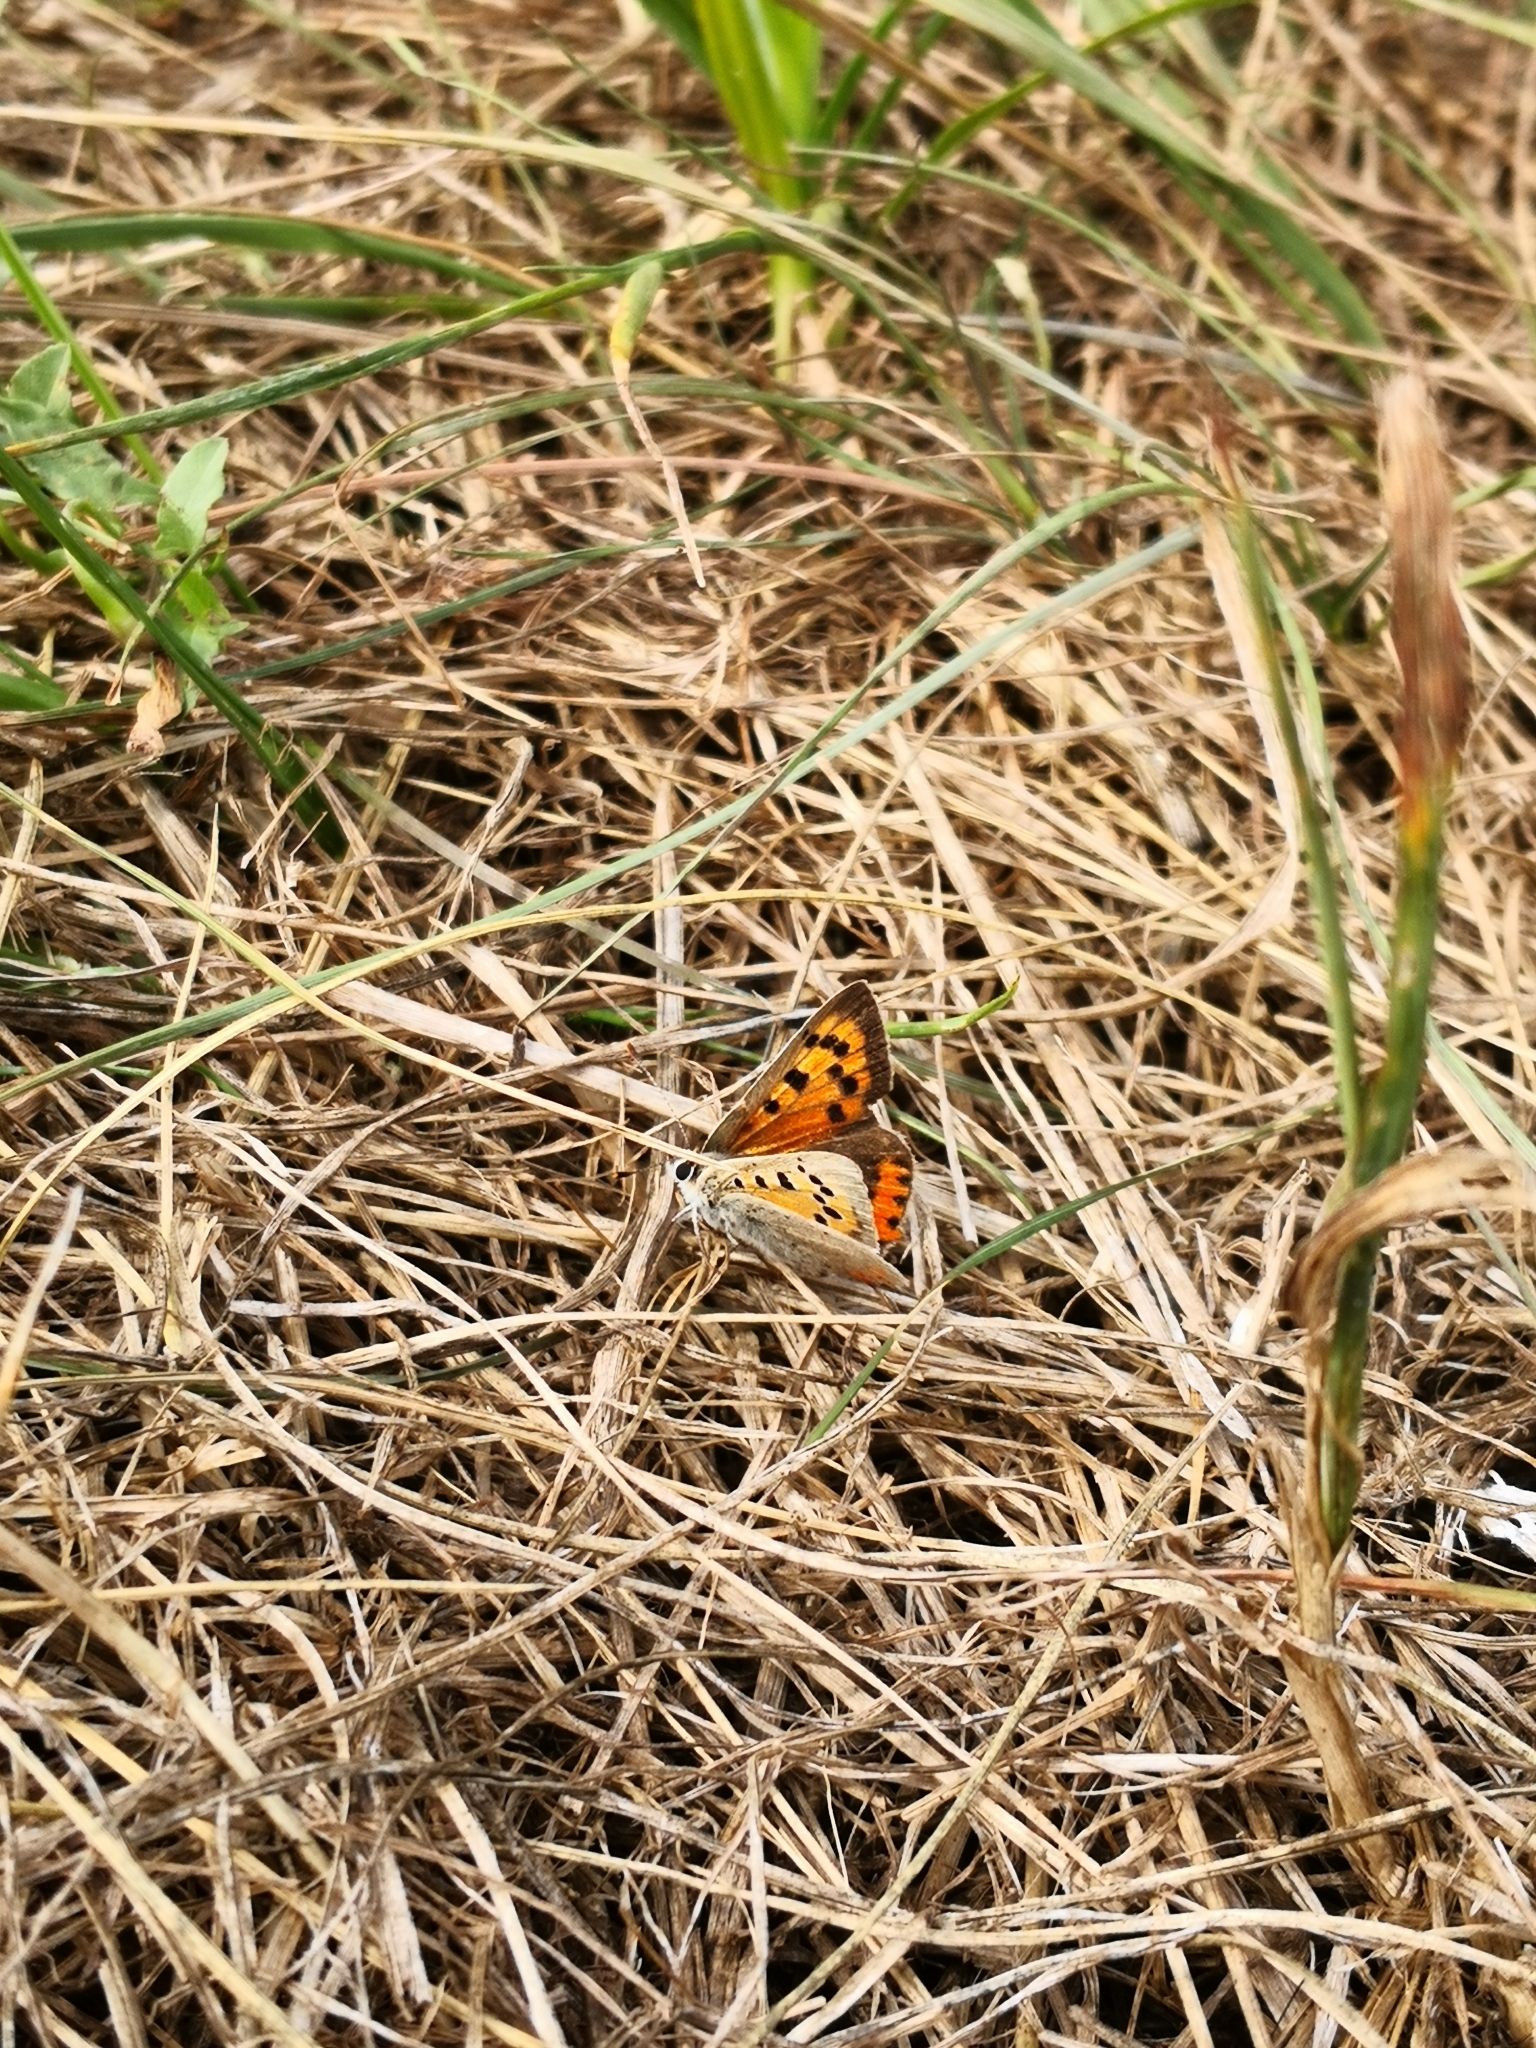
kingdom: Animalia
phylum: Arthropoda
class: Insecta
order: Lepidoptera
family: Lycaenidae
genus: Lycaena
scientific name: Lycaena phlaeas
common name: Small copper
